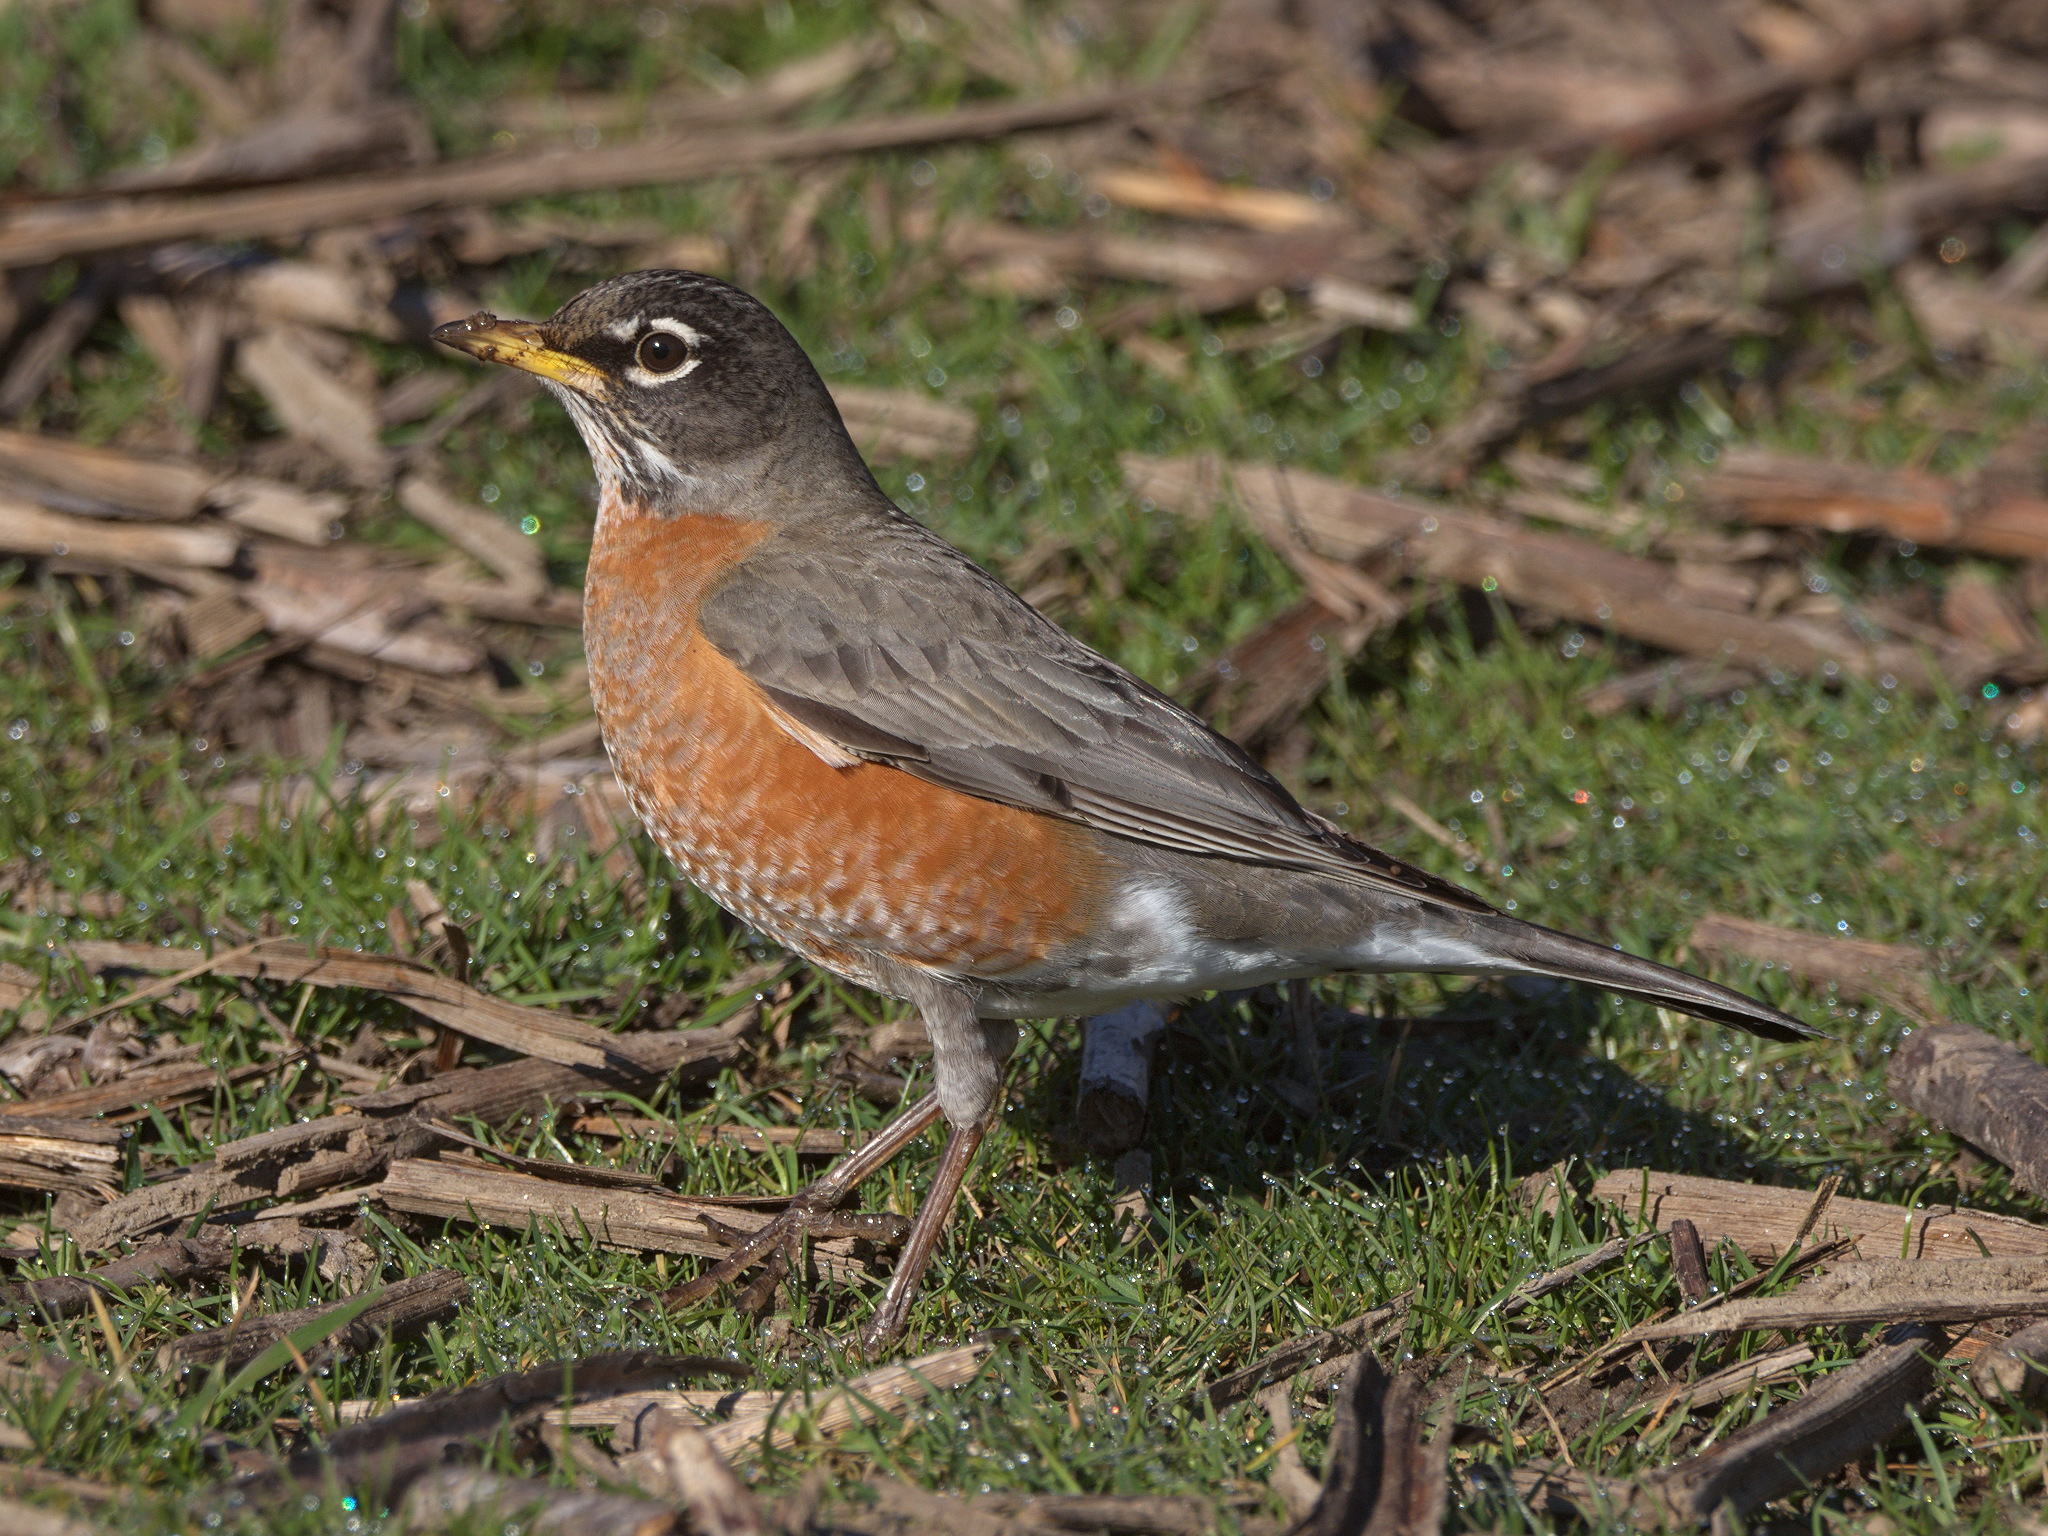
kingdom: Animalia
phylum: Chordata
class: Aves
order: Passeriformes
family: Turdidae
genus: Turdus
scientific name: Turdus migratorius
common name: American robin
